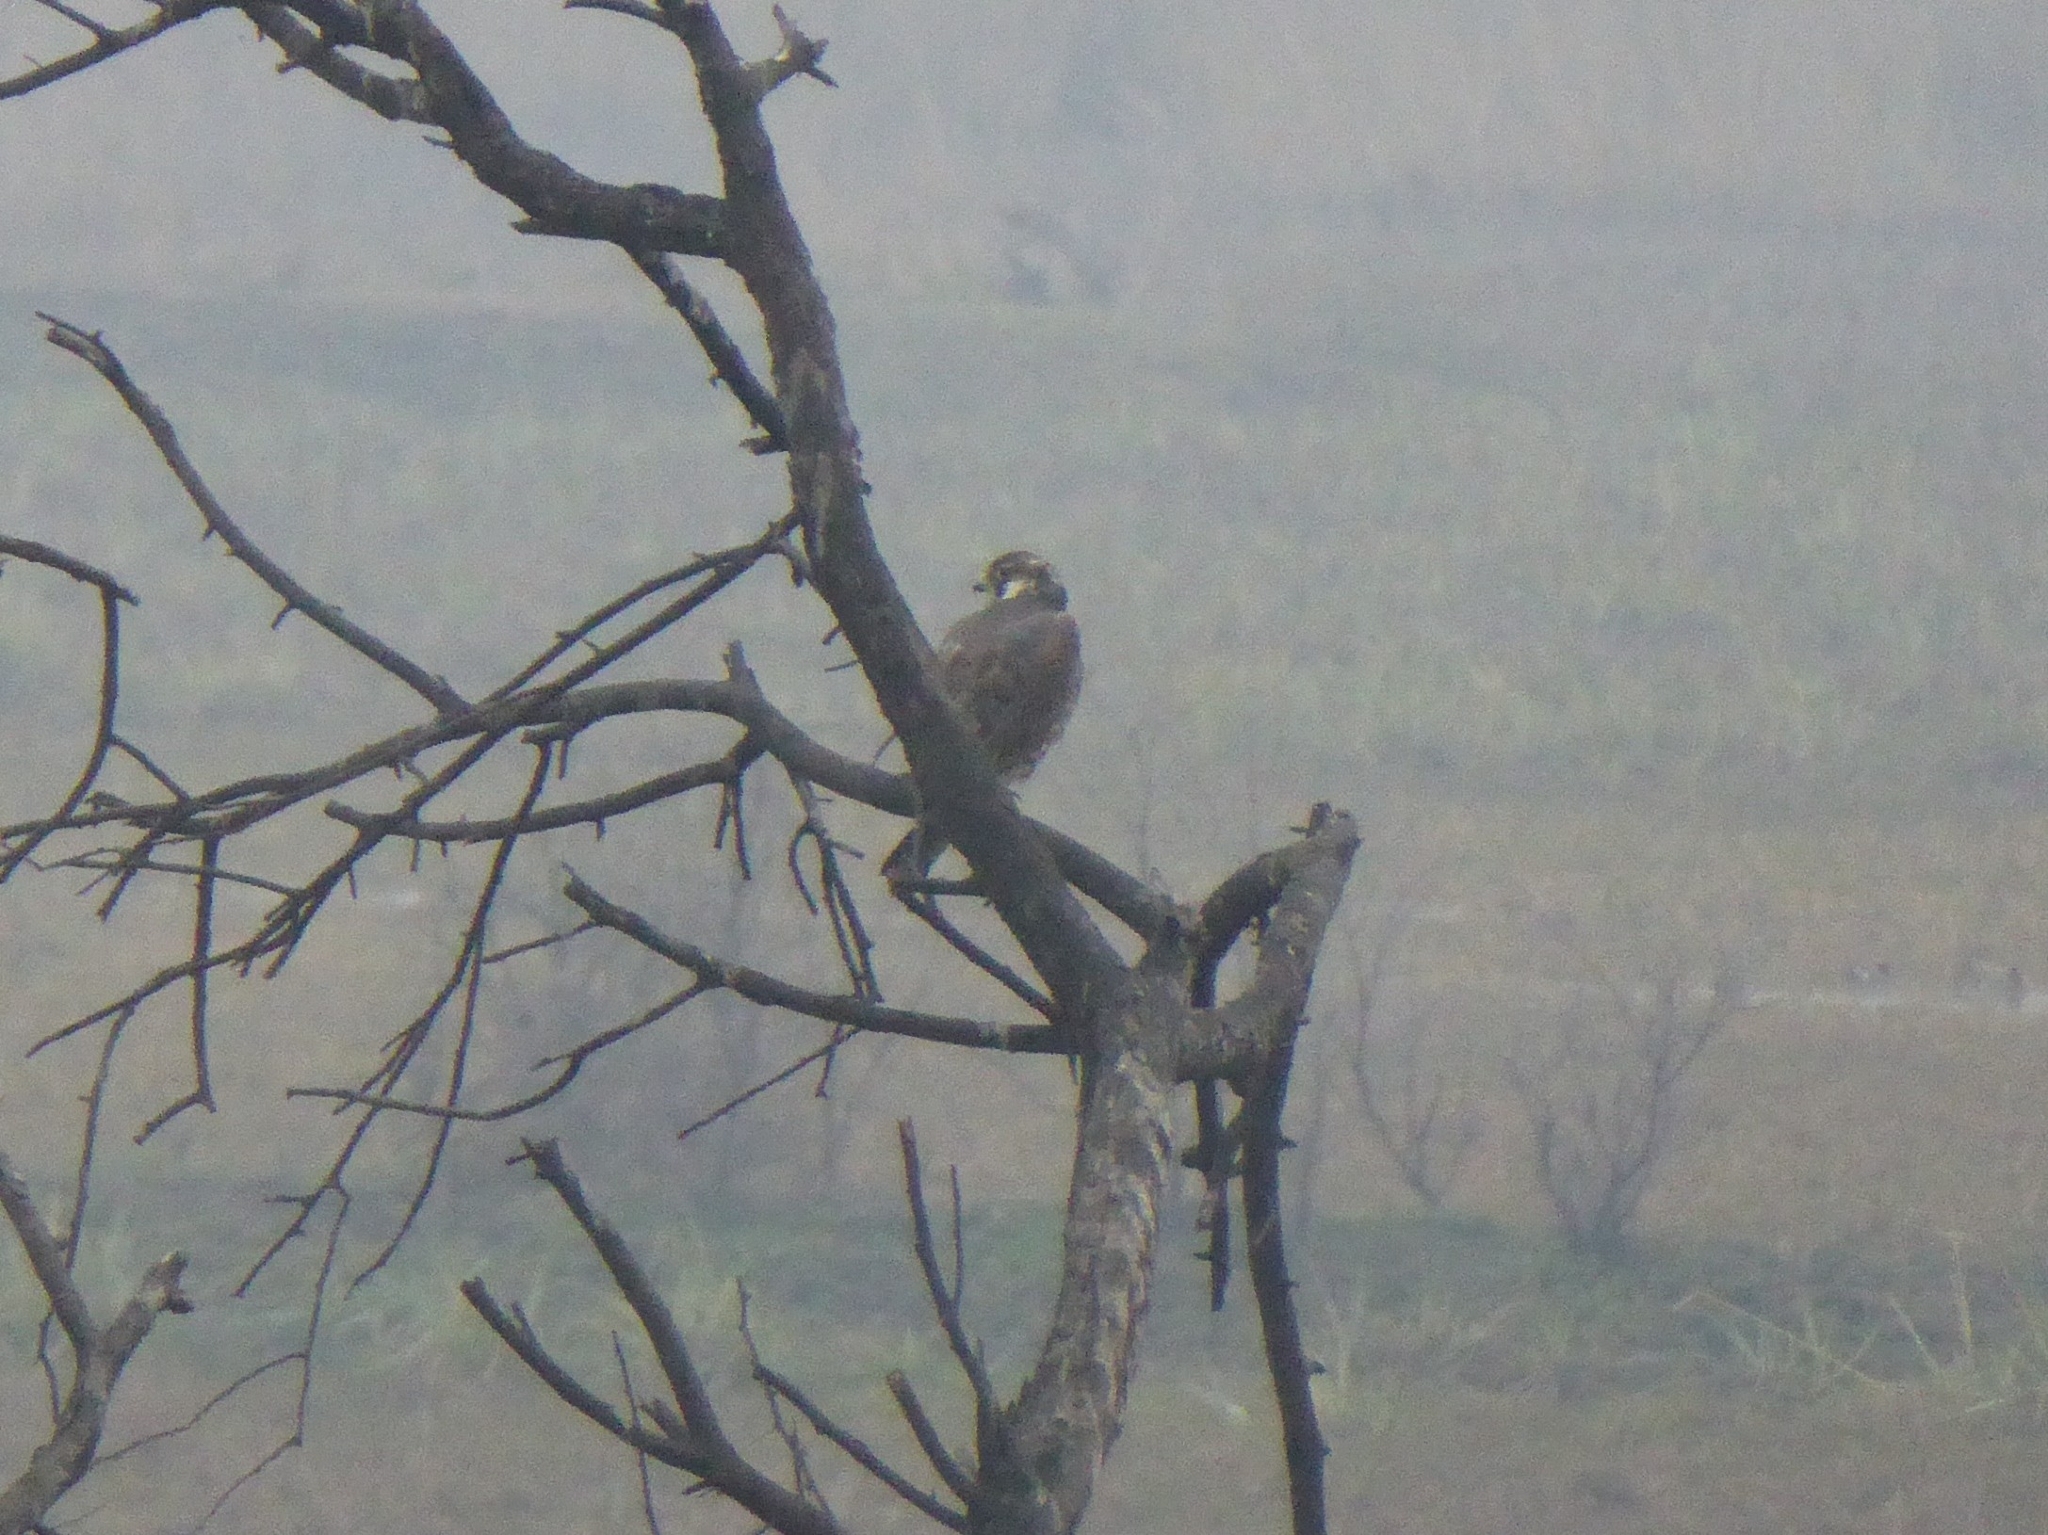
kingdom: Animalia
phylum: Chordata
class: Aves
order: Falconiformes
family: Falconidae
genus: Falco
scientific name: Falco peregrinus
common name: Peregrine falcon
